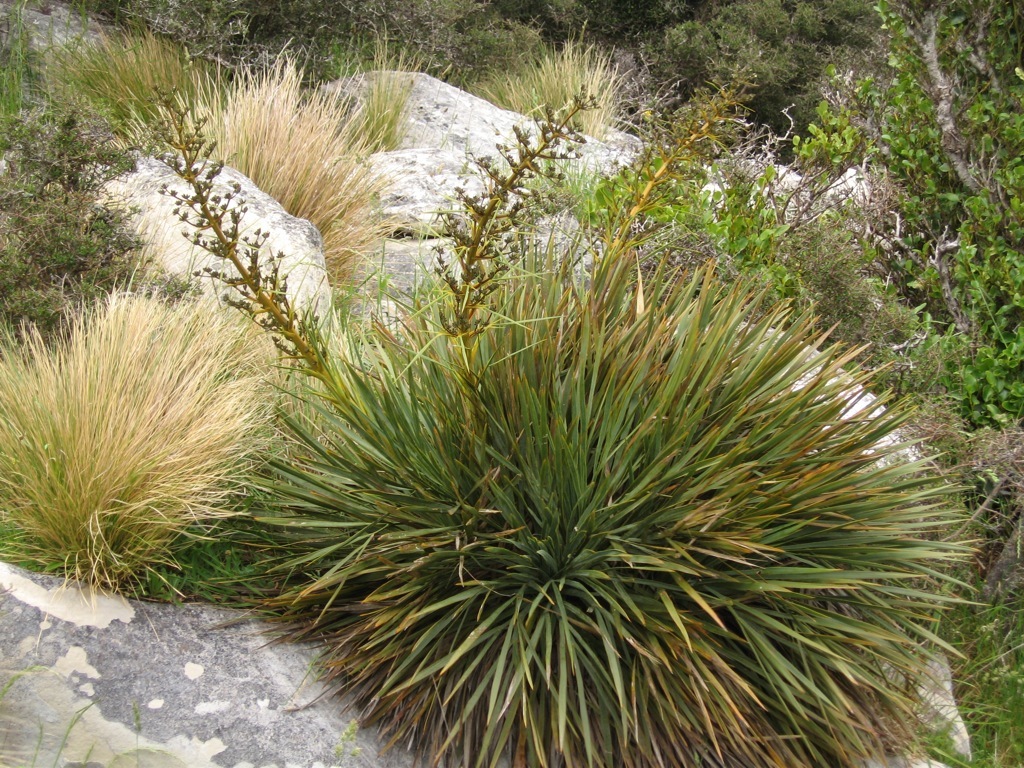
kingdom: Plantae
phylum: Tracheophyta
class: Magnoliopsida
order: Apiales
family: Apiaceae
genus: Aciphylla
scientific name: Aciphylla aurea
